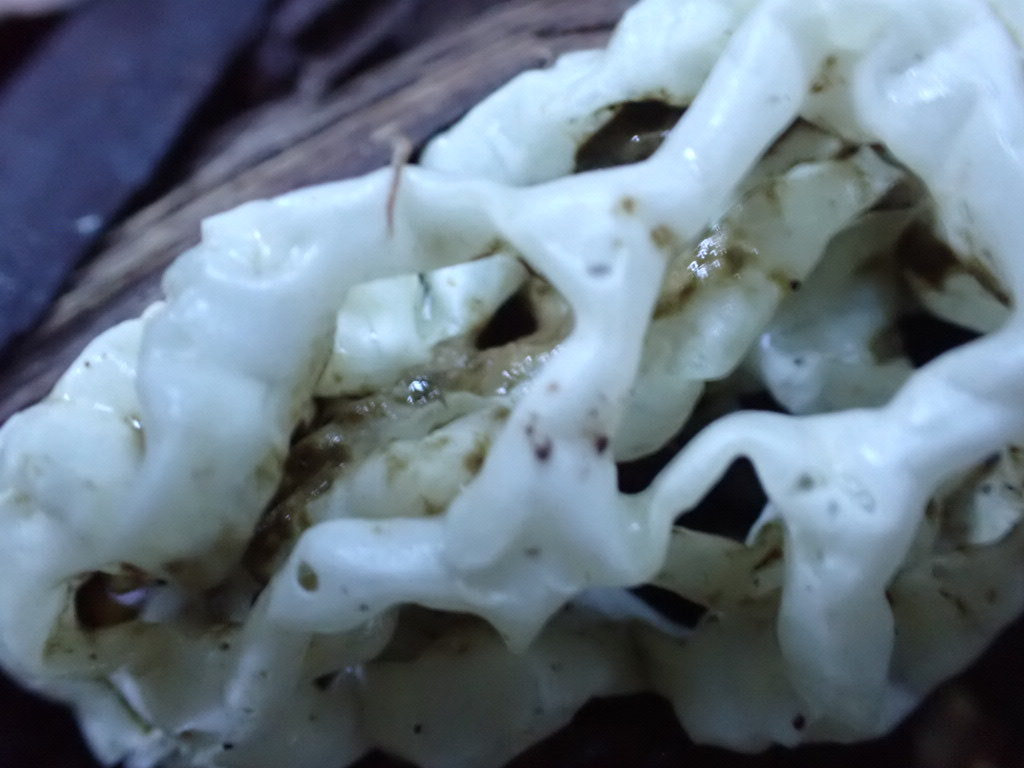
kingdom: Fungi
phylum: Basidiomycota
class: Agaricomycetes
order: Phallales
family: Phallaceae
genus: Ileodictyon
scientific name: Ileodictyon cibarium
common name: Basket fungus
